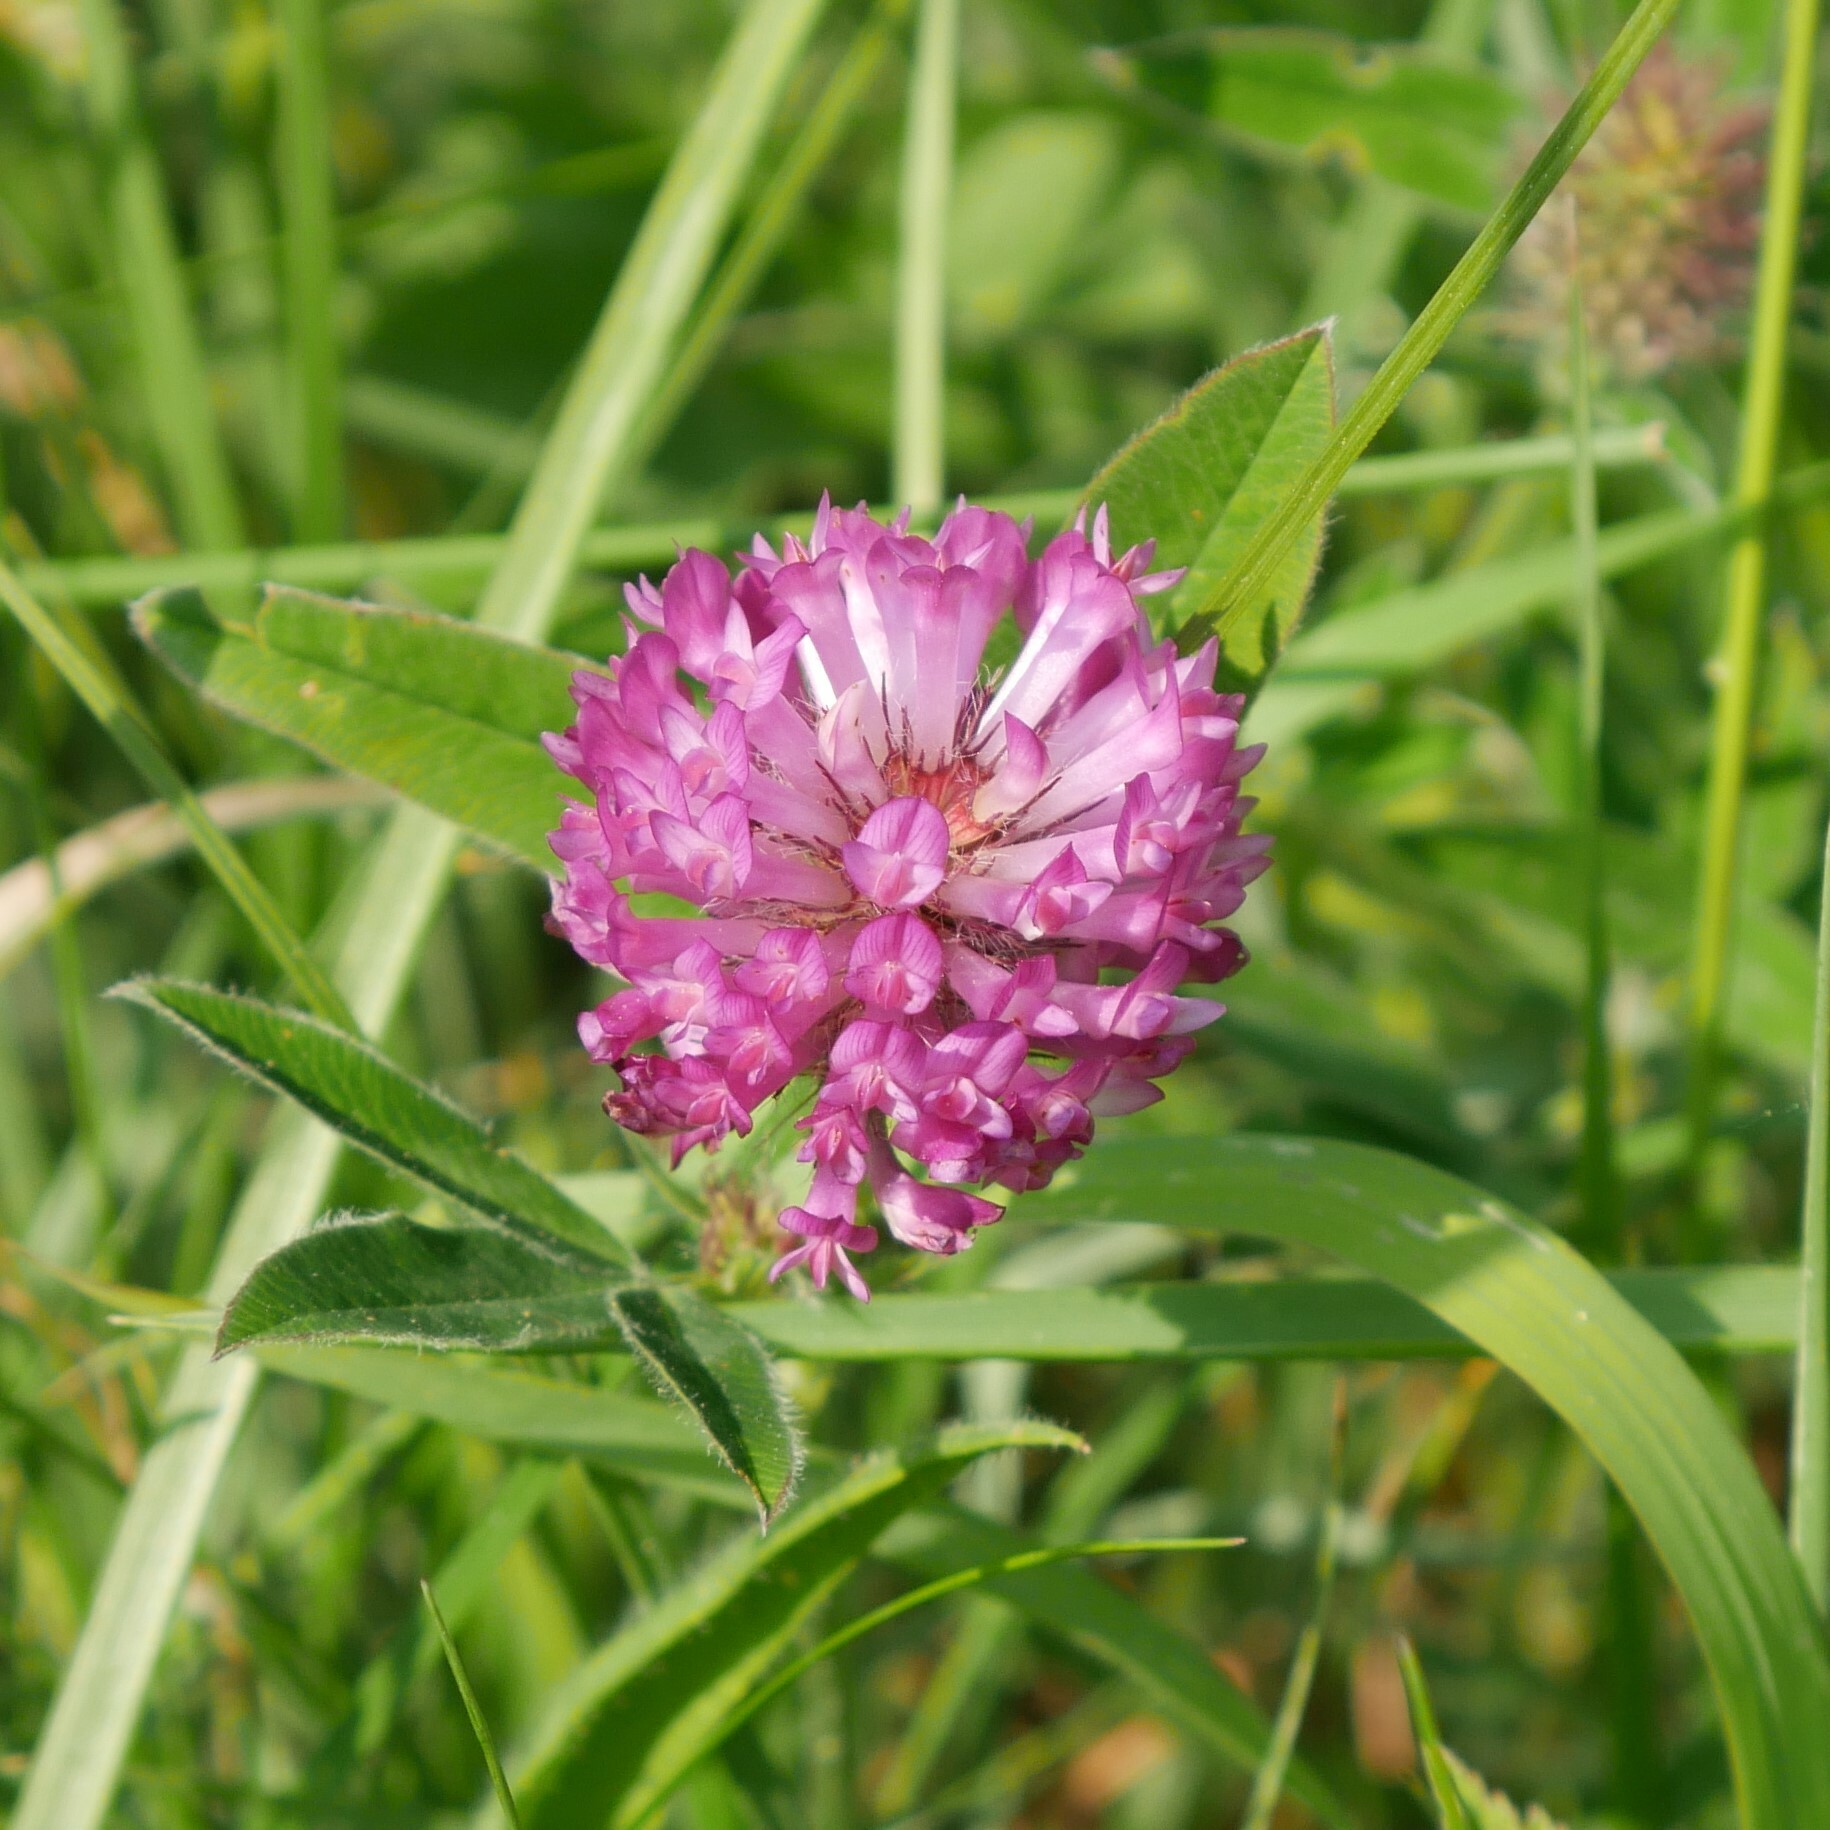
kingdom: Plantae
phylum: Tracheophyta
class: Magnoliopsida
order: Fabales
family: Fabaceae
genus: Trifolium
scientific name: Trifolium medium
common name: Zigzag clover
